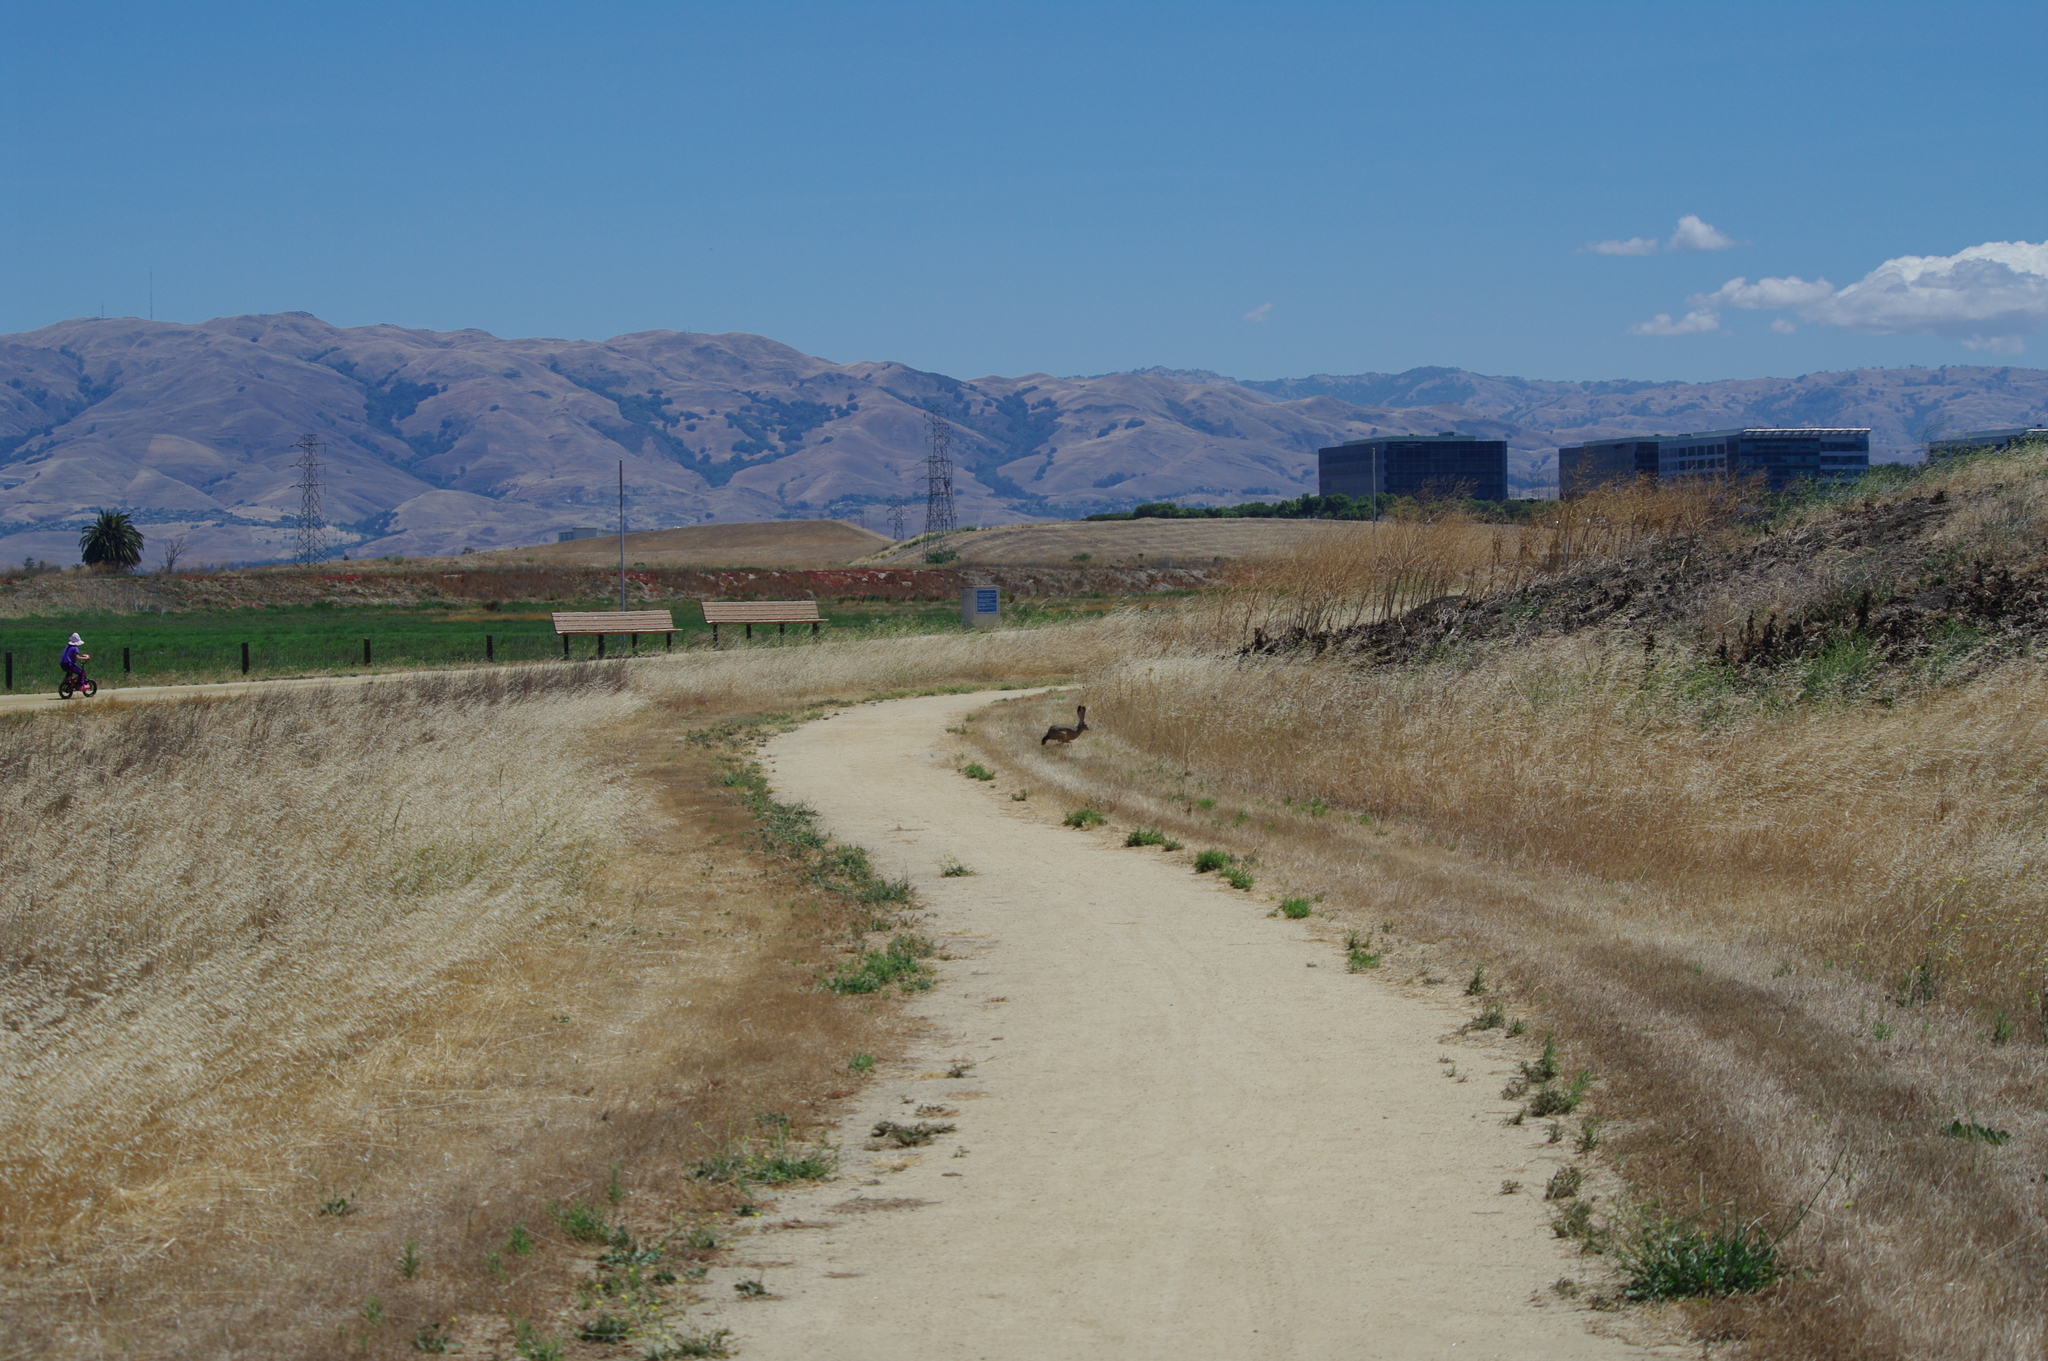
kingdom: Animalia
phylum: Chordata
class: Mammalia
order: Lagomorpha
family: Leporidae
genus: Lepus
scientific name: Lepus californicus
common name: Black-tailed jackrabbit
